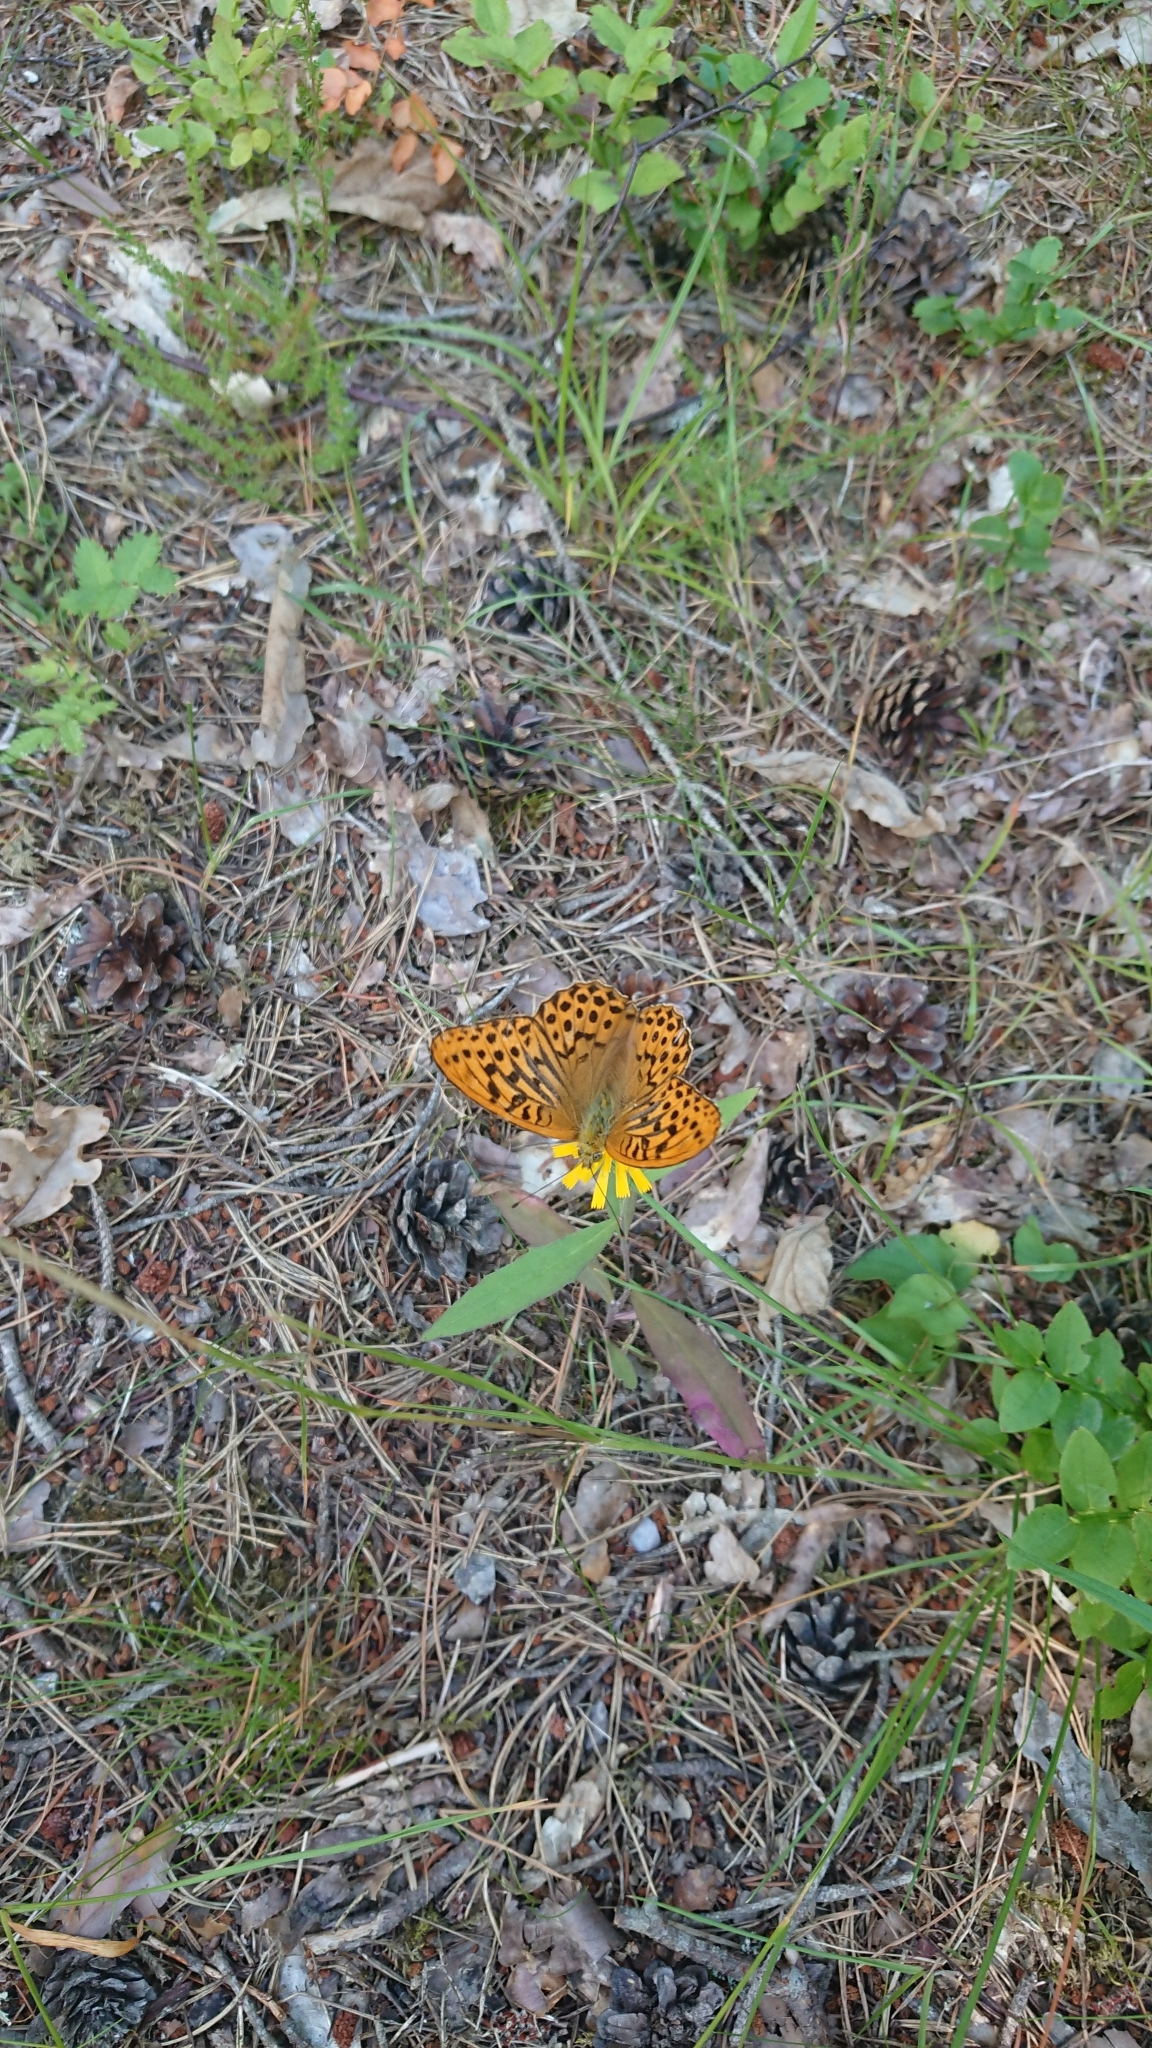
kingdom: Animalia
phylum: Arthropoda
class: Insecta
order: Lepidoptera
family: Nymphalidae
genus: Argynnis
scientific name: Argynnis paphia
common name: Silver-washed fritillary
